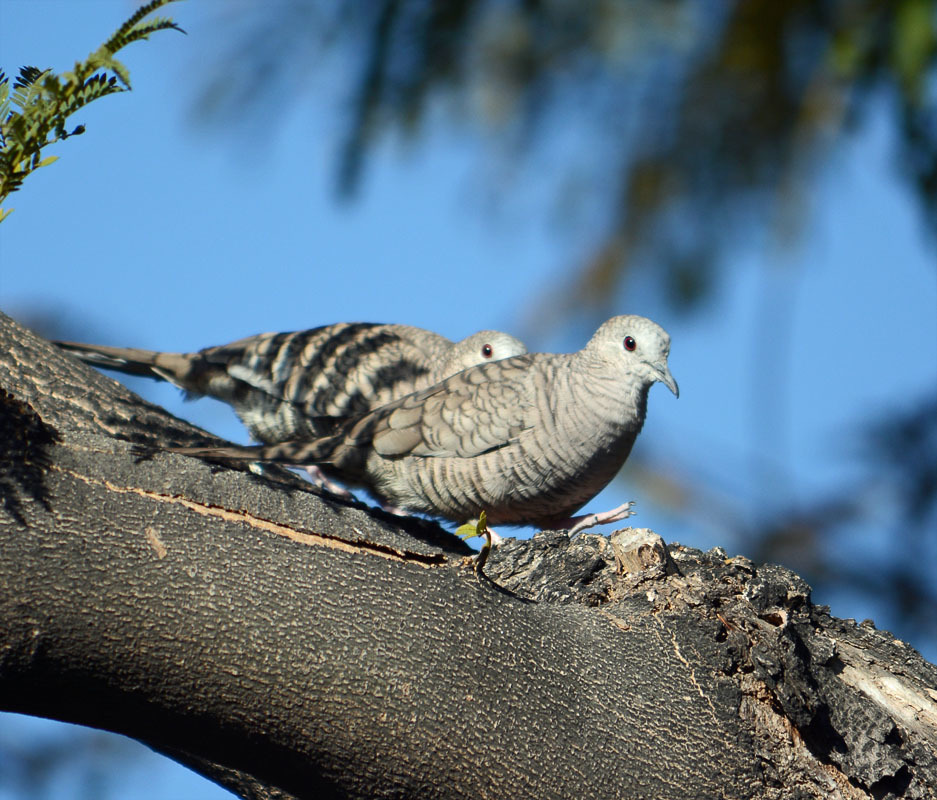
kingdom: Animalia
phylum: Chordata
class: Aves
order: Columbiformes
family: Columbidae
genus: Columbina
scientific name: Columbina inca
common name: Inca dove
